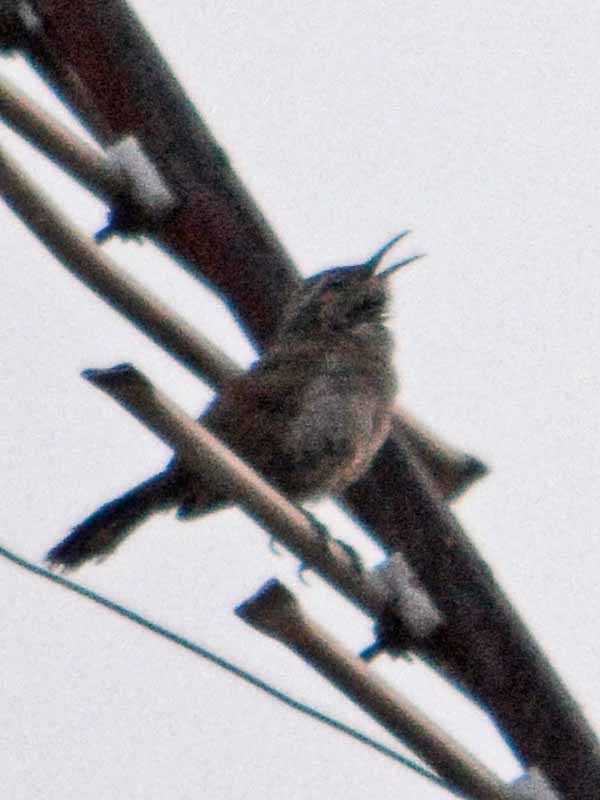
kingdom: Animalia
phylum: Chordata
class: Aves
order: Passeriformes
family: Troglodytidae
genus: Thryomanes
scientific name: Thryomanes bewickii
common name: Bewick's wren
